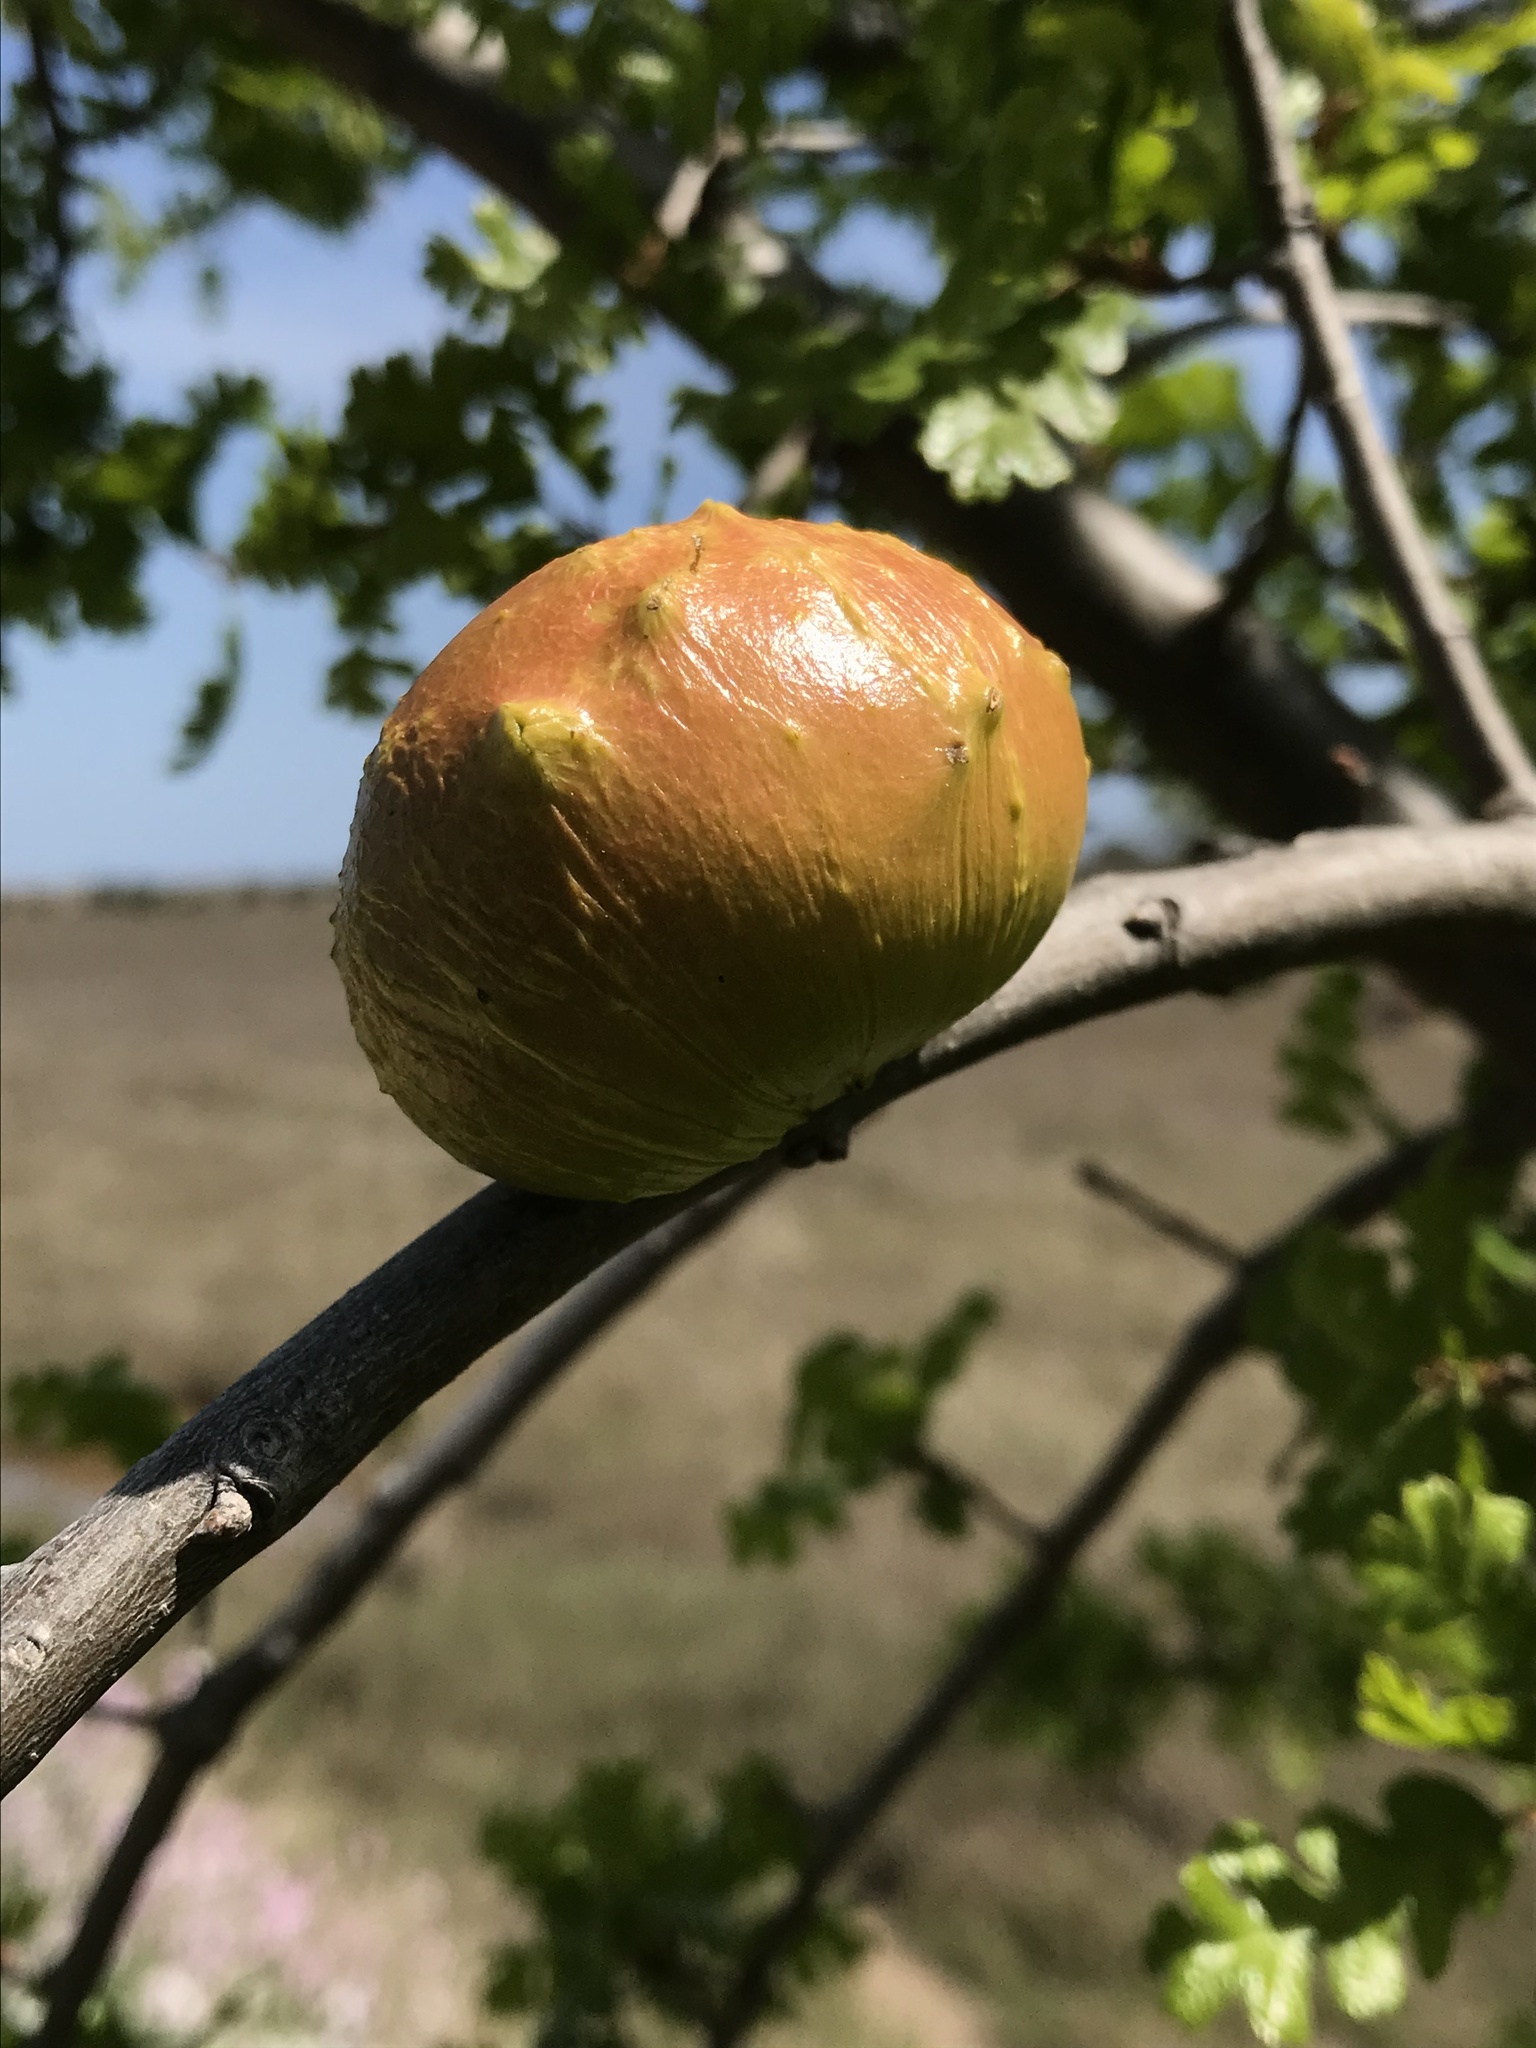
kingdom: Animalia
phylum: Arthropoda
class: Insecta
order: Hymenoptera
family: Cynipidae
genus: Andricus
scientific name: Andricus quercuscalifornicus
